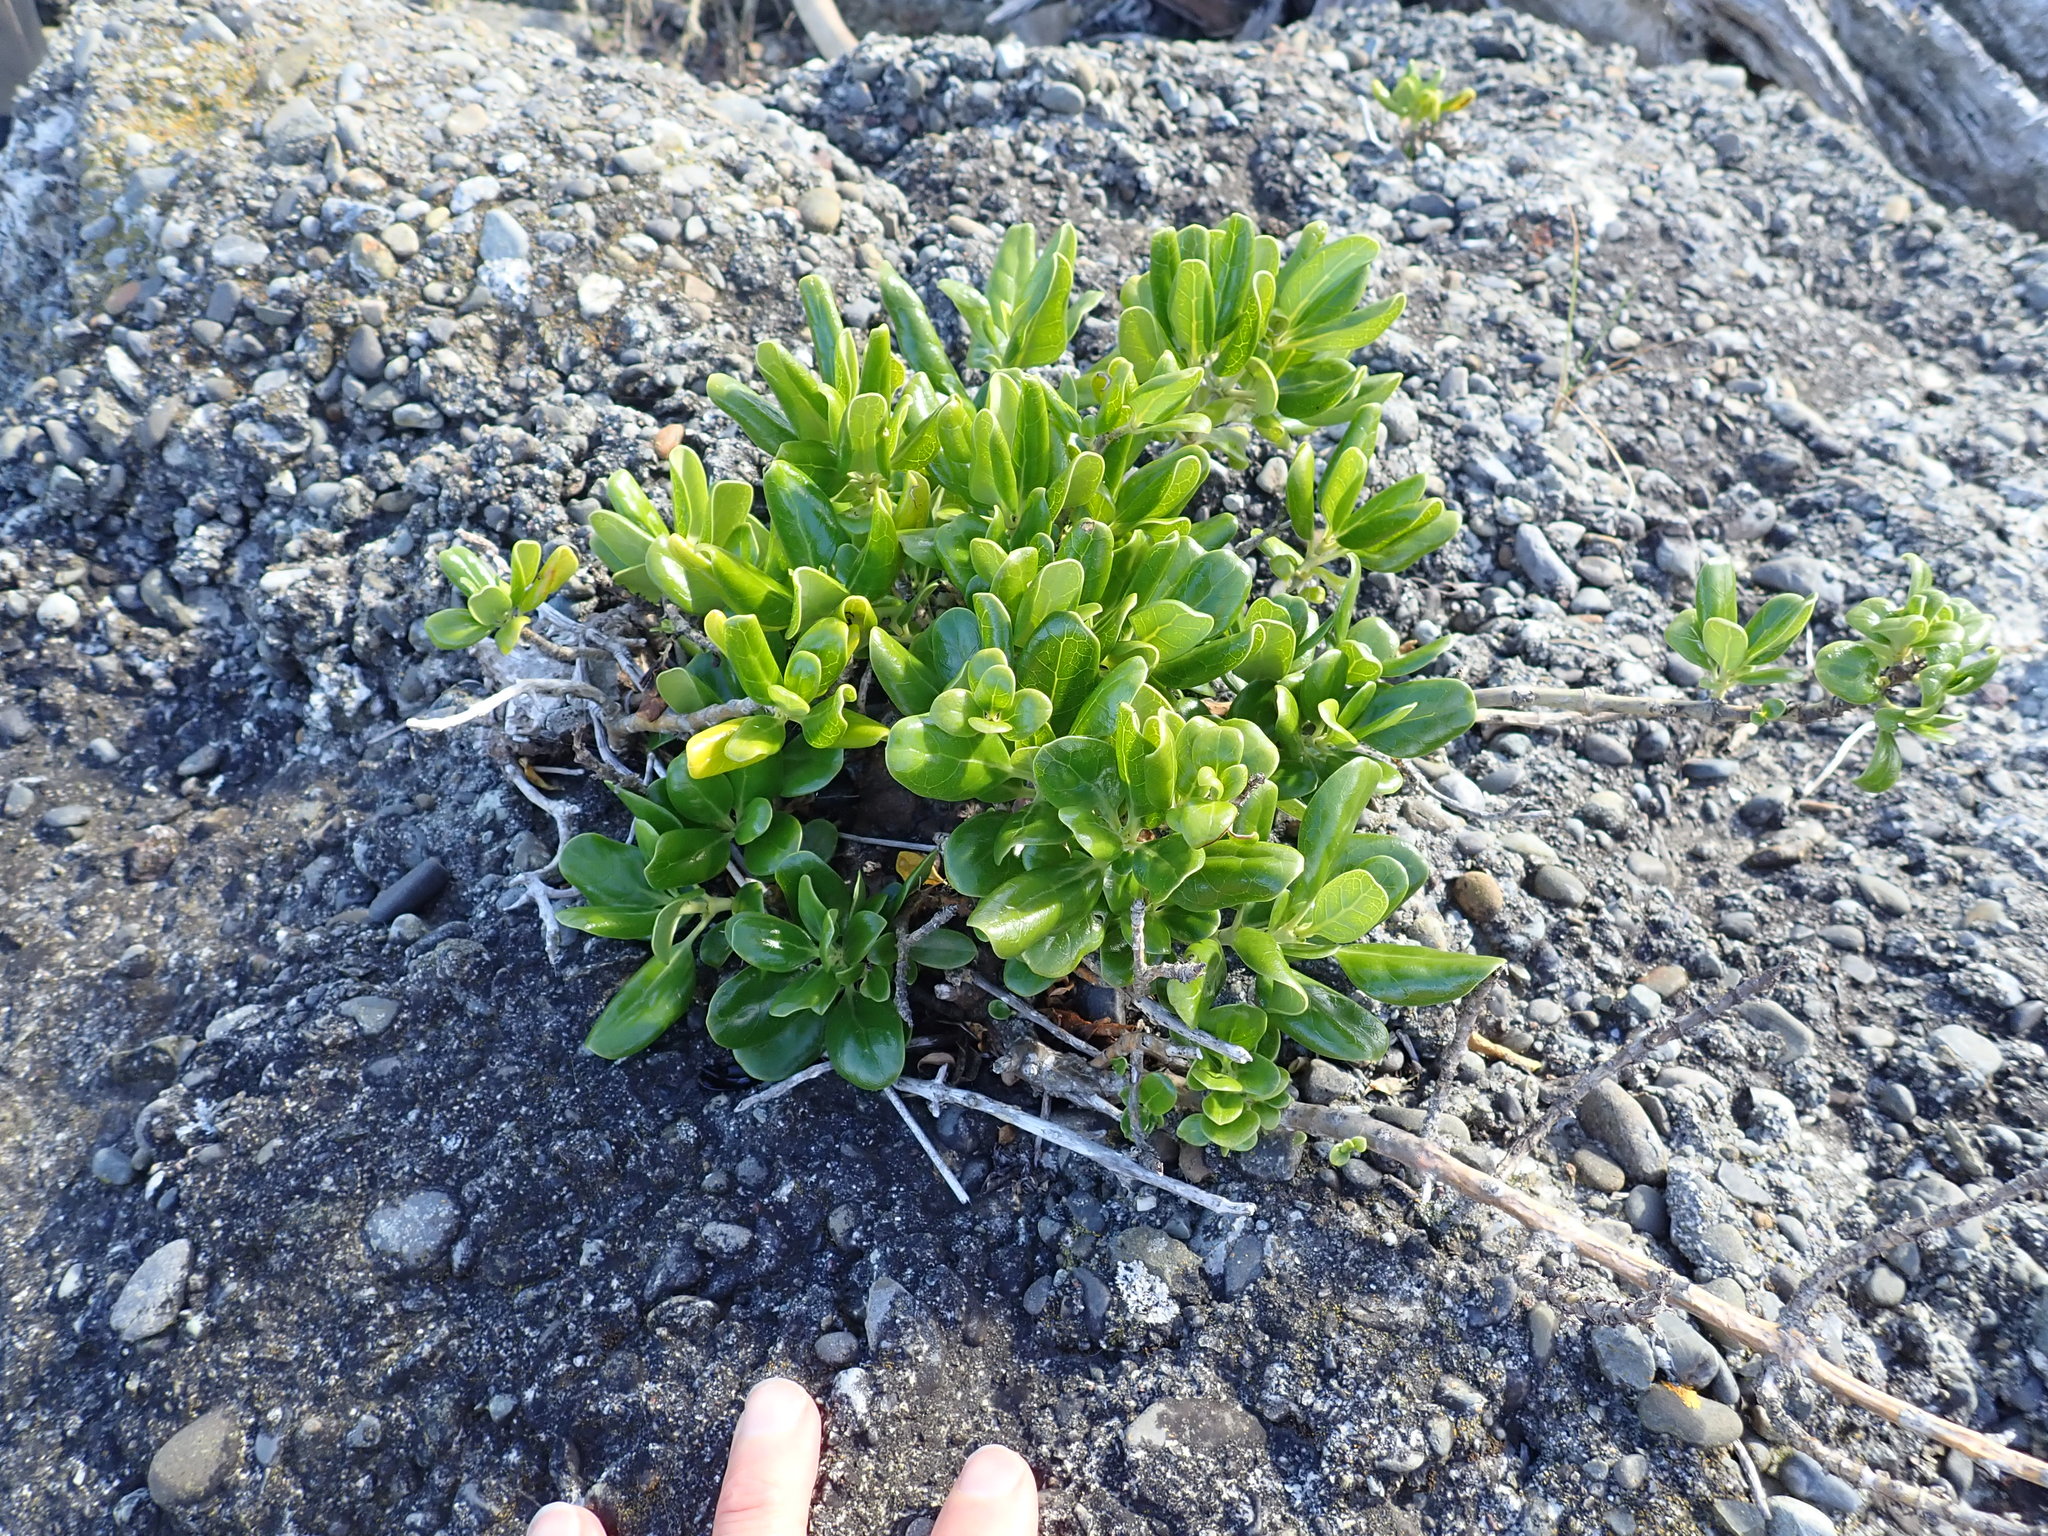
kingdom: Plantae
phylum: Tracheophyta
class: Magnoliopsida
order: Gentianales
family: Rubiaceae
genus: Coprosma
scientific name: Coprosma repens
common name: Tree bedstraw
